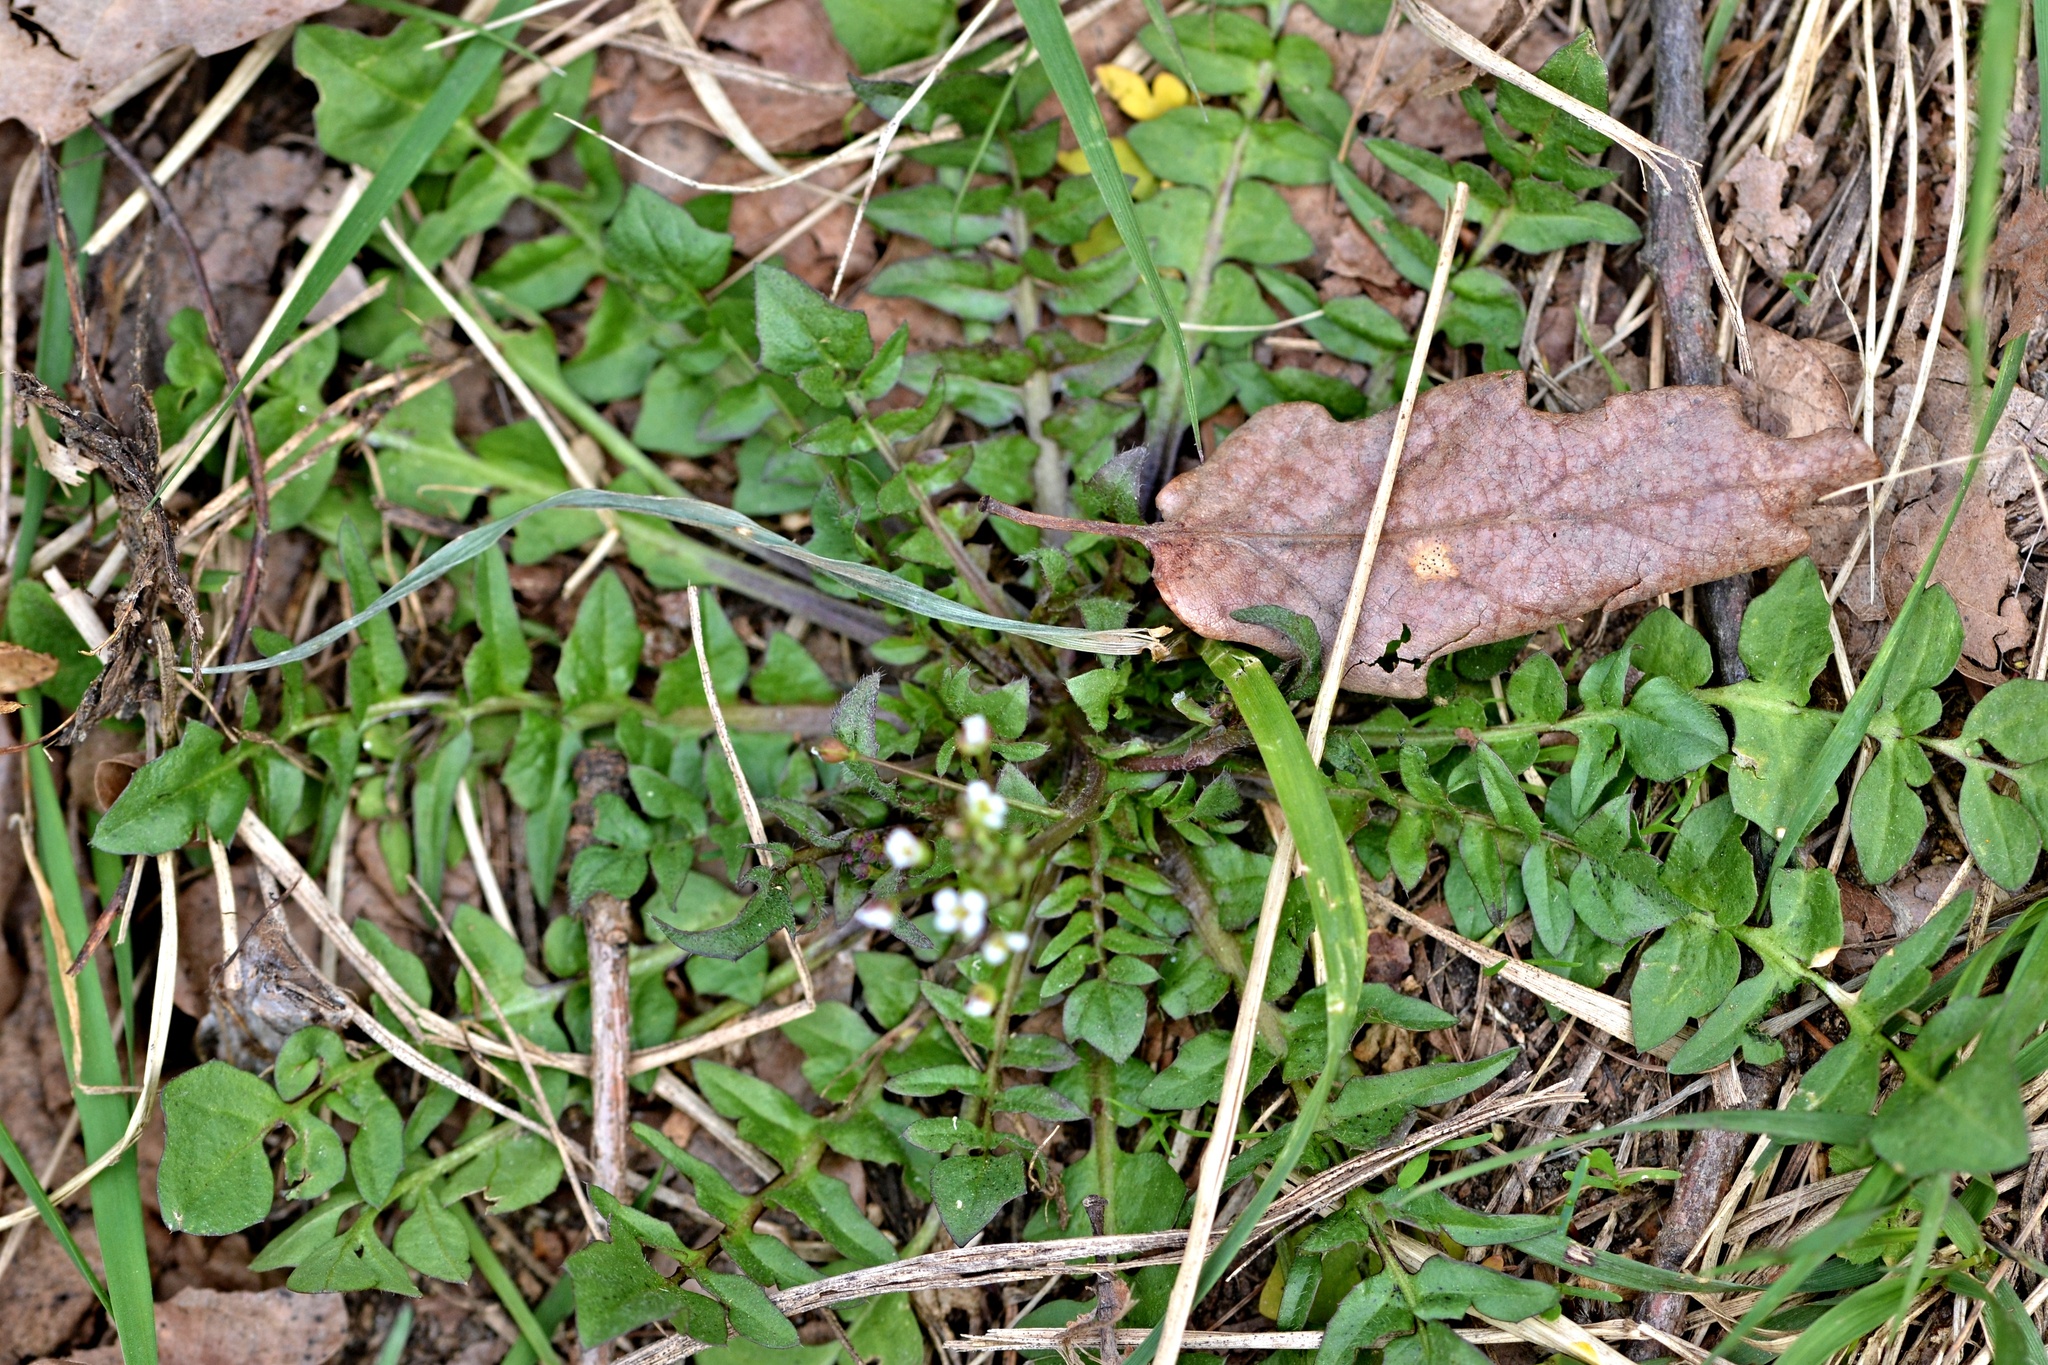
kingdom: Plantae
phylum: Tracheophyta
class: Magnoliopsida
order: Brassicales
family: Brassicaceae
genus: Capsella
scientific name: Capsella bursa-pastoris
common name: Shepherd's purse
